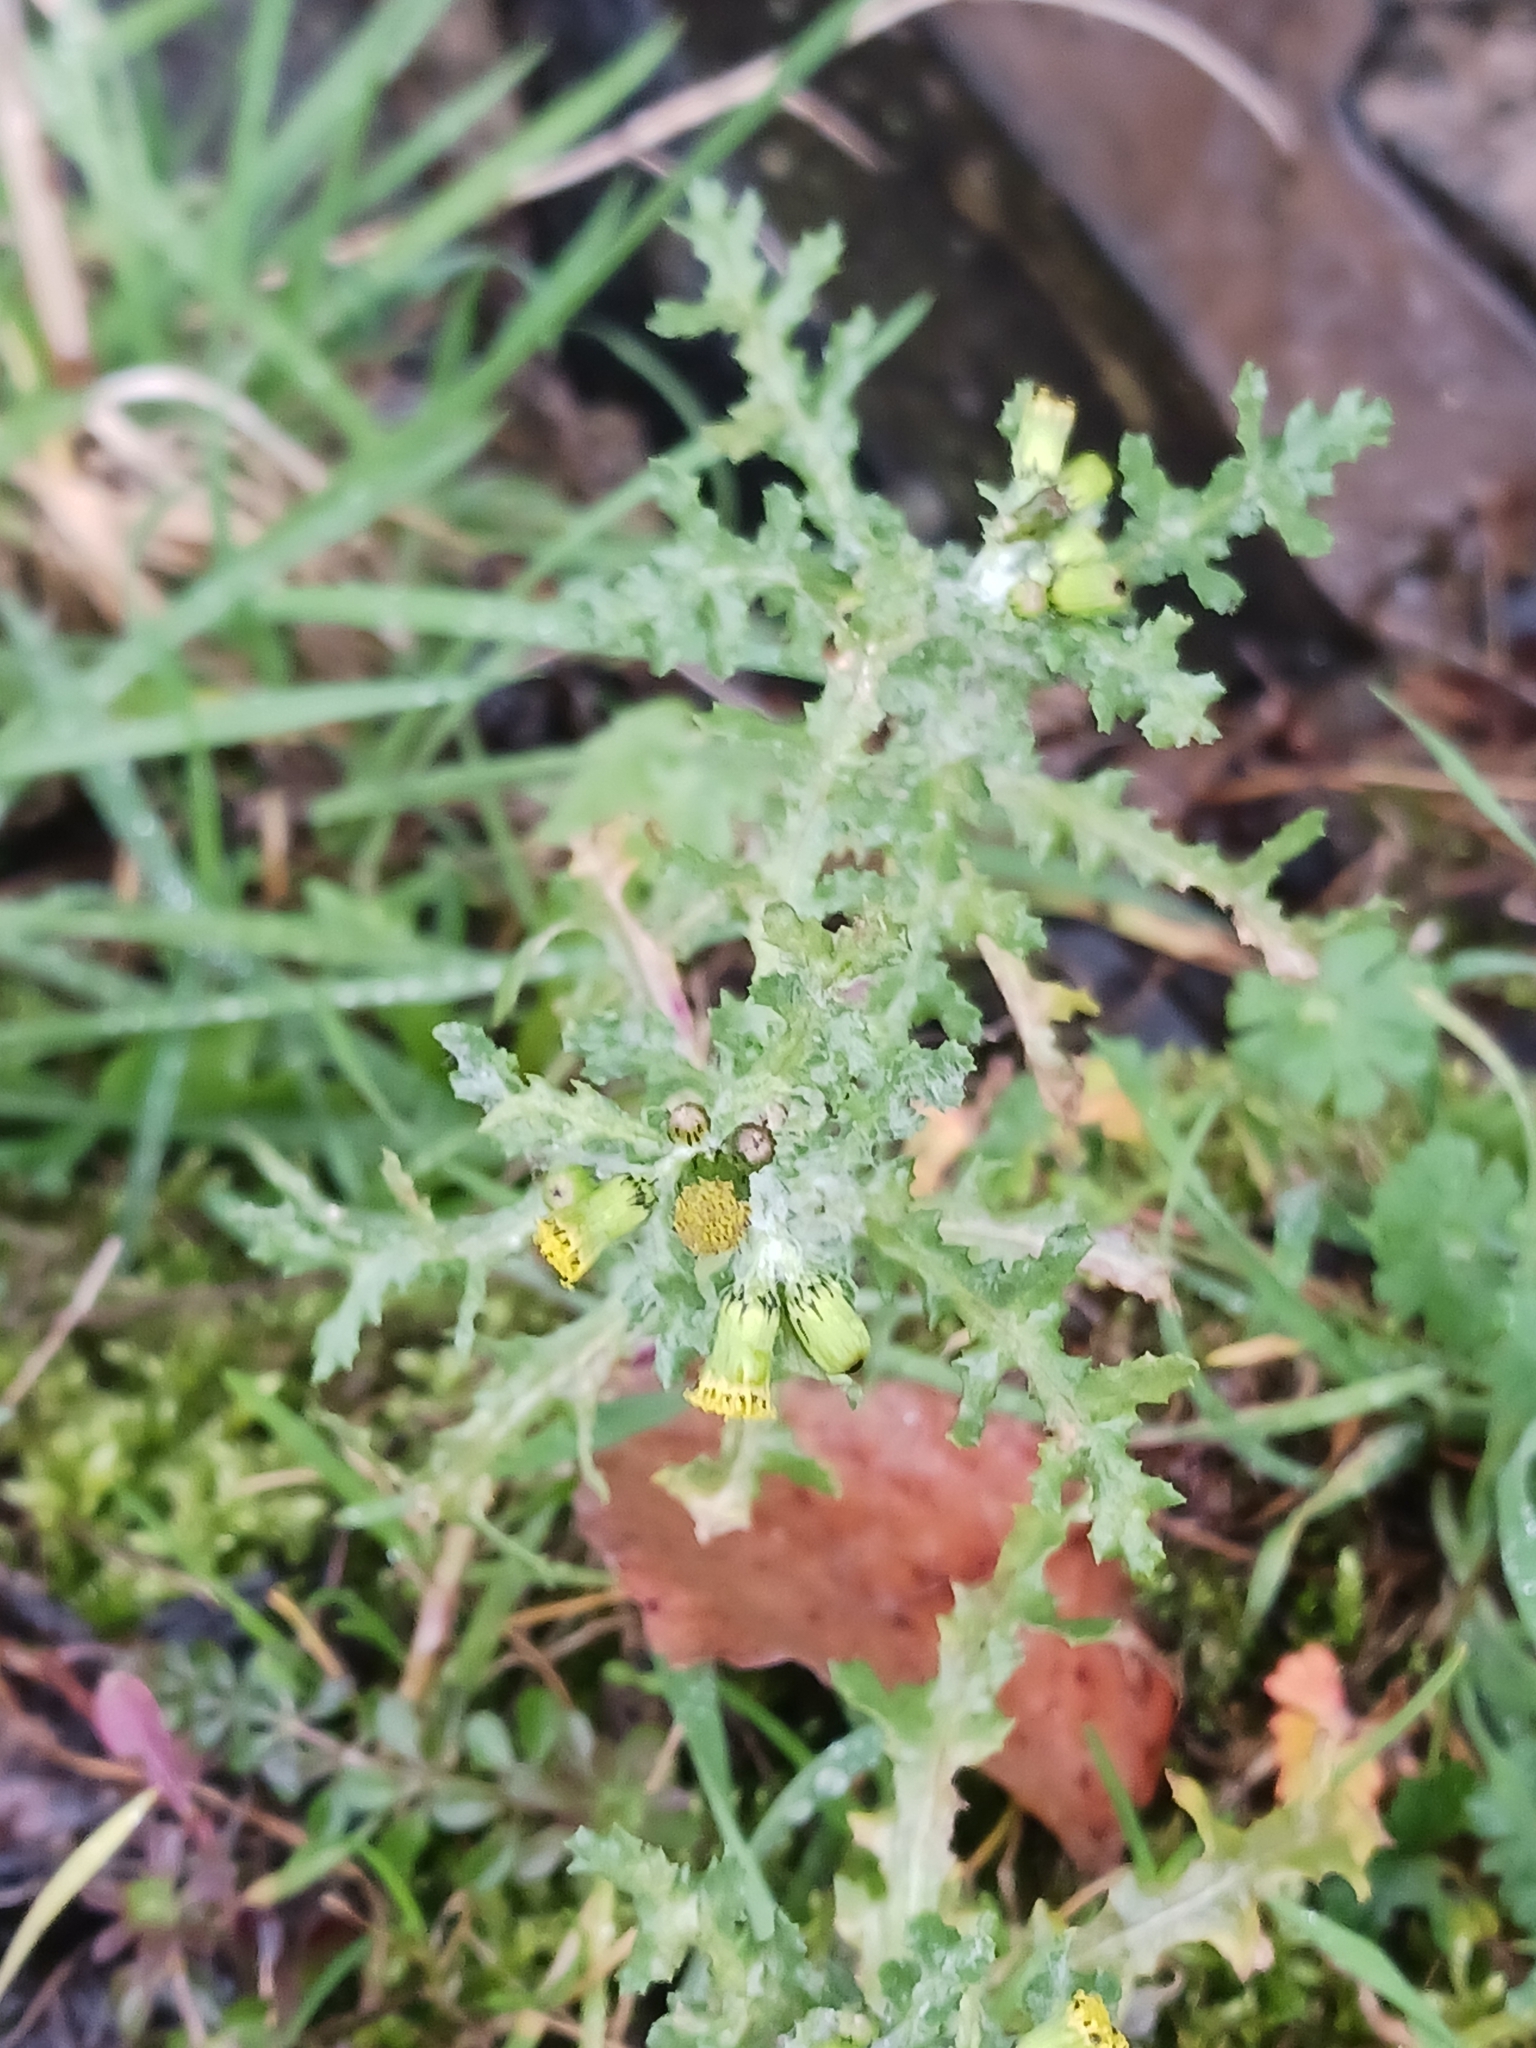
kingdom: Plantae
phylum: Tracheophyta
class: Magnoliopsida
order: Asterales
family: Asteraceae
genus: Senecio
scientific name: Senecio vulgaris
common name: Old-man-in-the-spring
